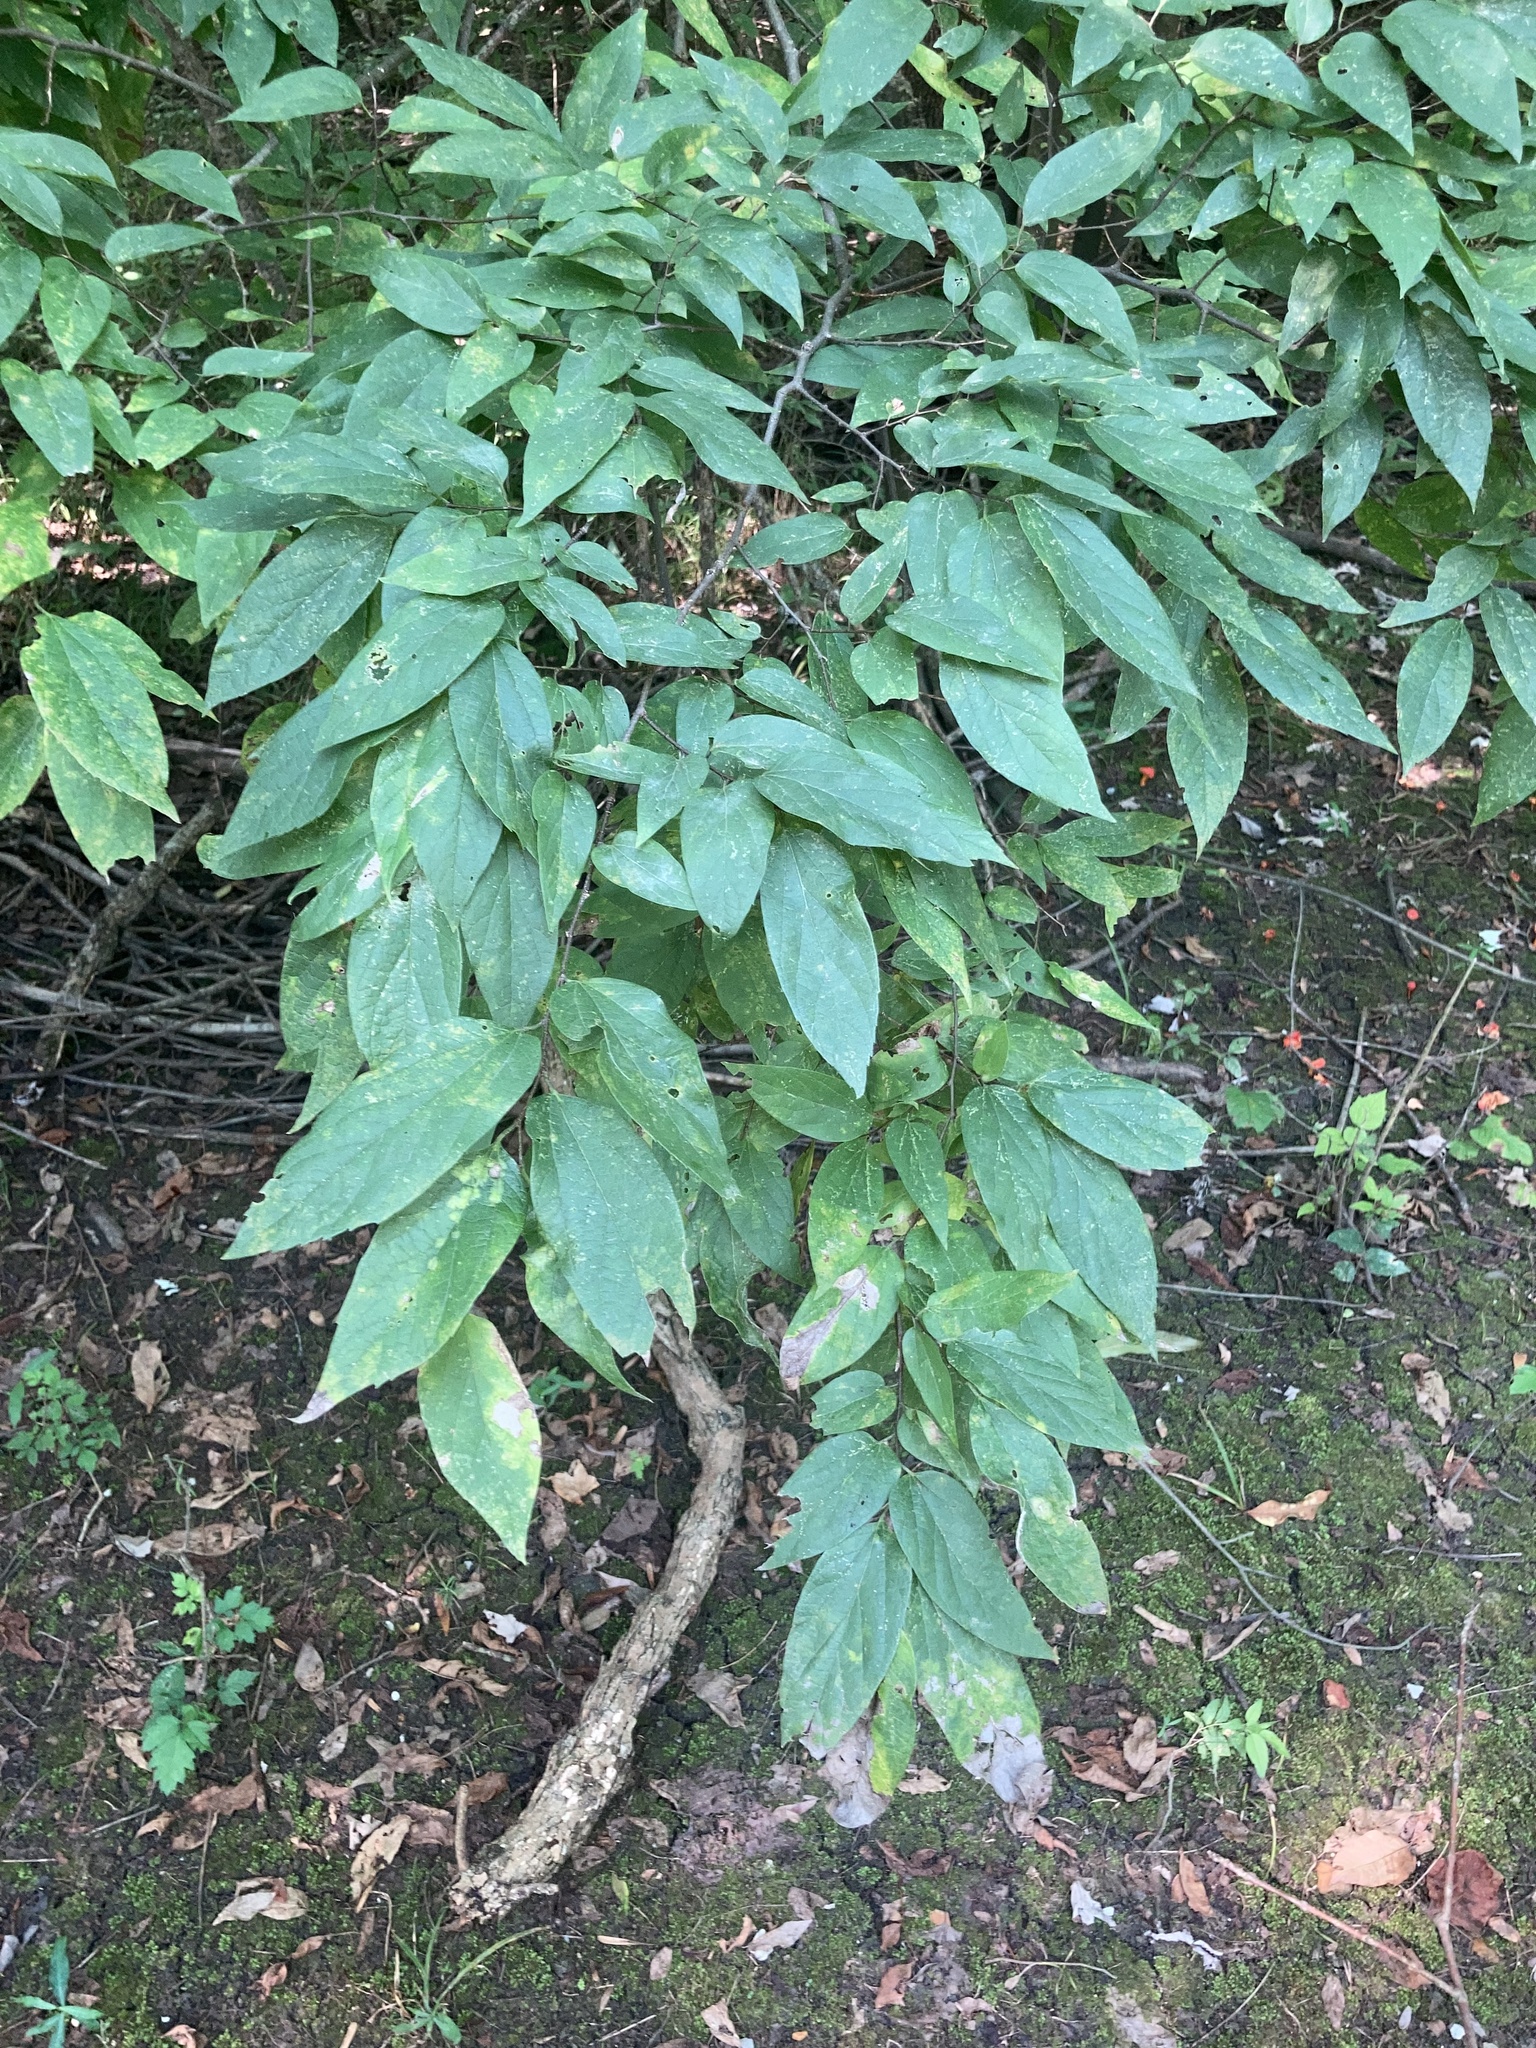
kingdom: Plantae
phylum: Tracheophyta
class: Magnoliopsida
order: Rosales
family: Cannabaceae
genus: Celtis
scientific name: Celtis laevigata
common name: Sugarberry
